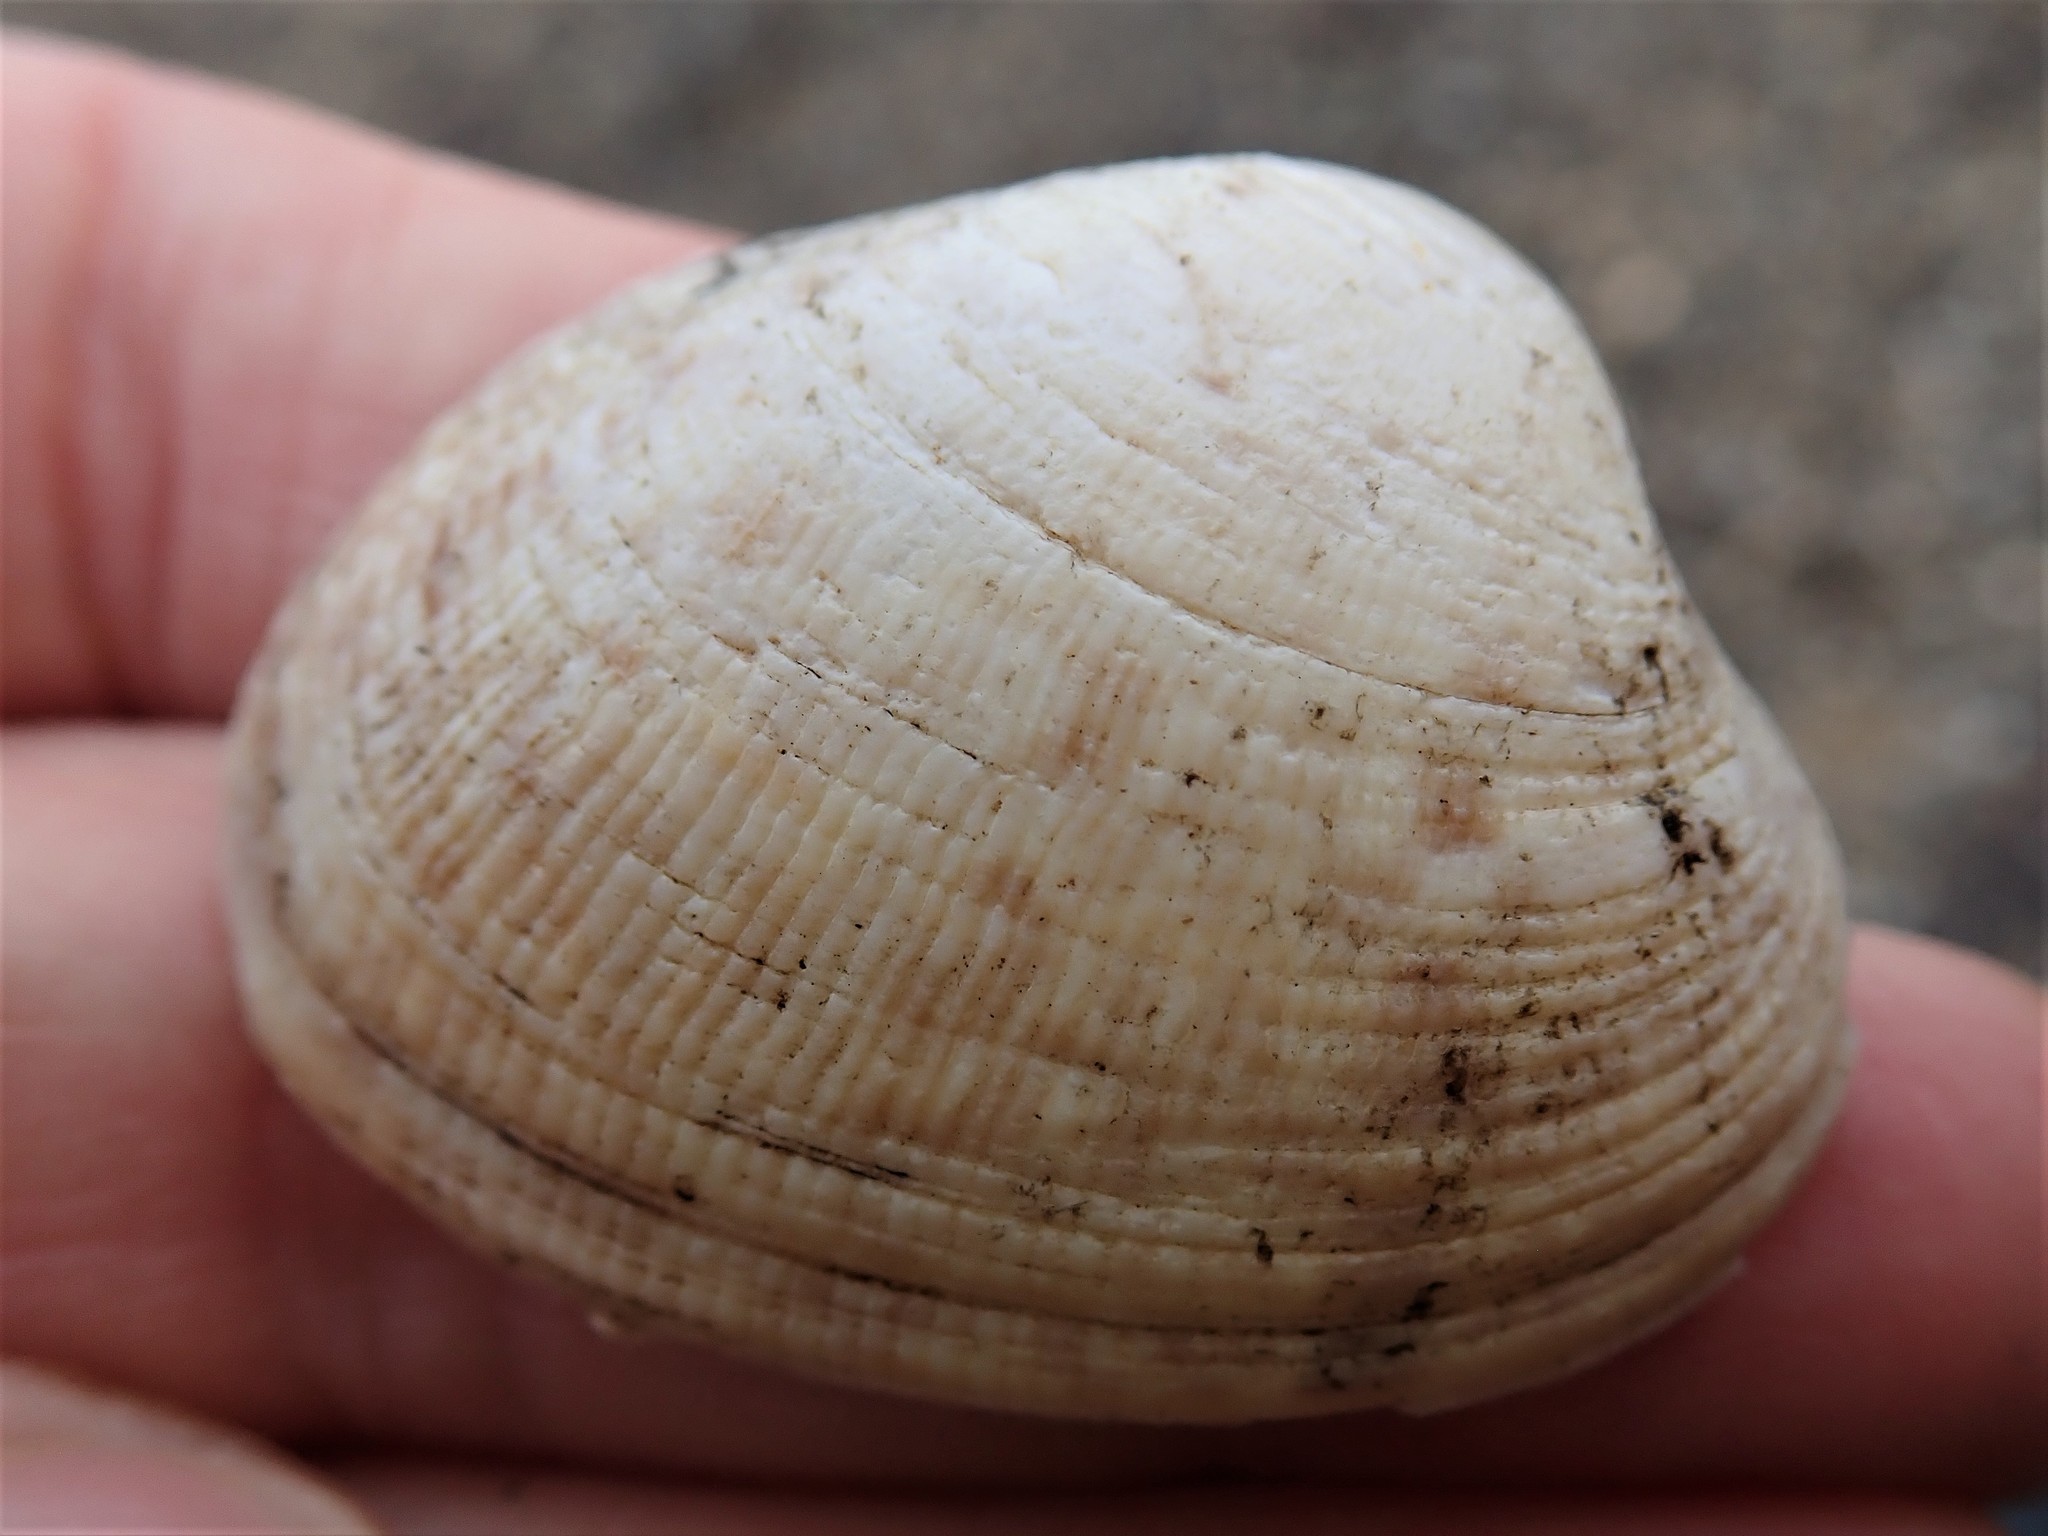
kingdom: Animalia
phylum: Mollusca
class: Bivalvia
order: Venerida
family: Veneridae
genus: Ruditapes
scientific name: Ruditapes philippinarum
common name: Manila clam
